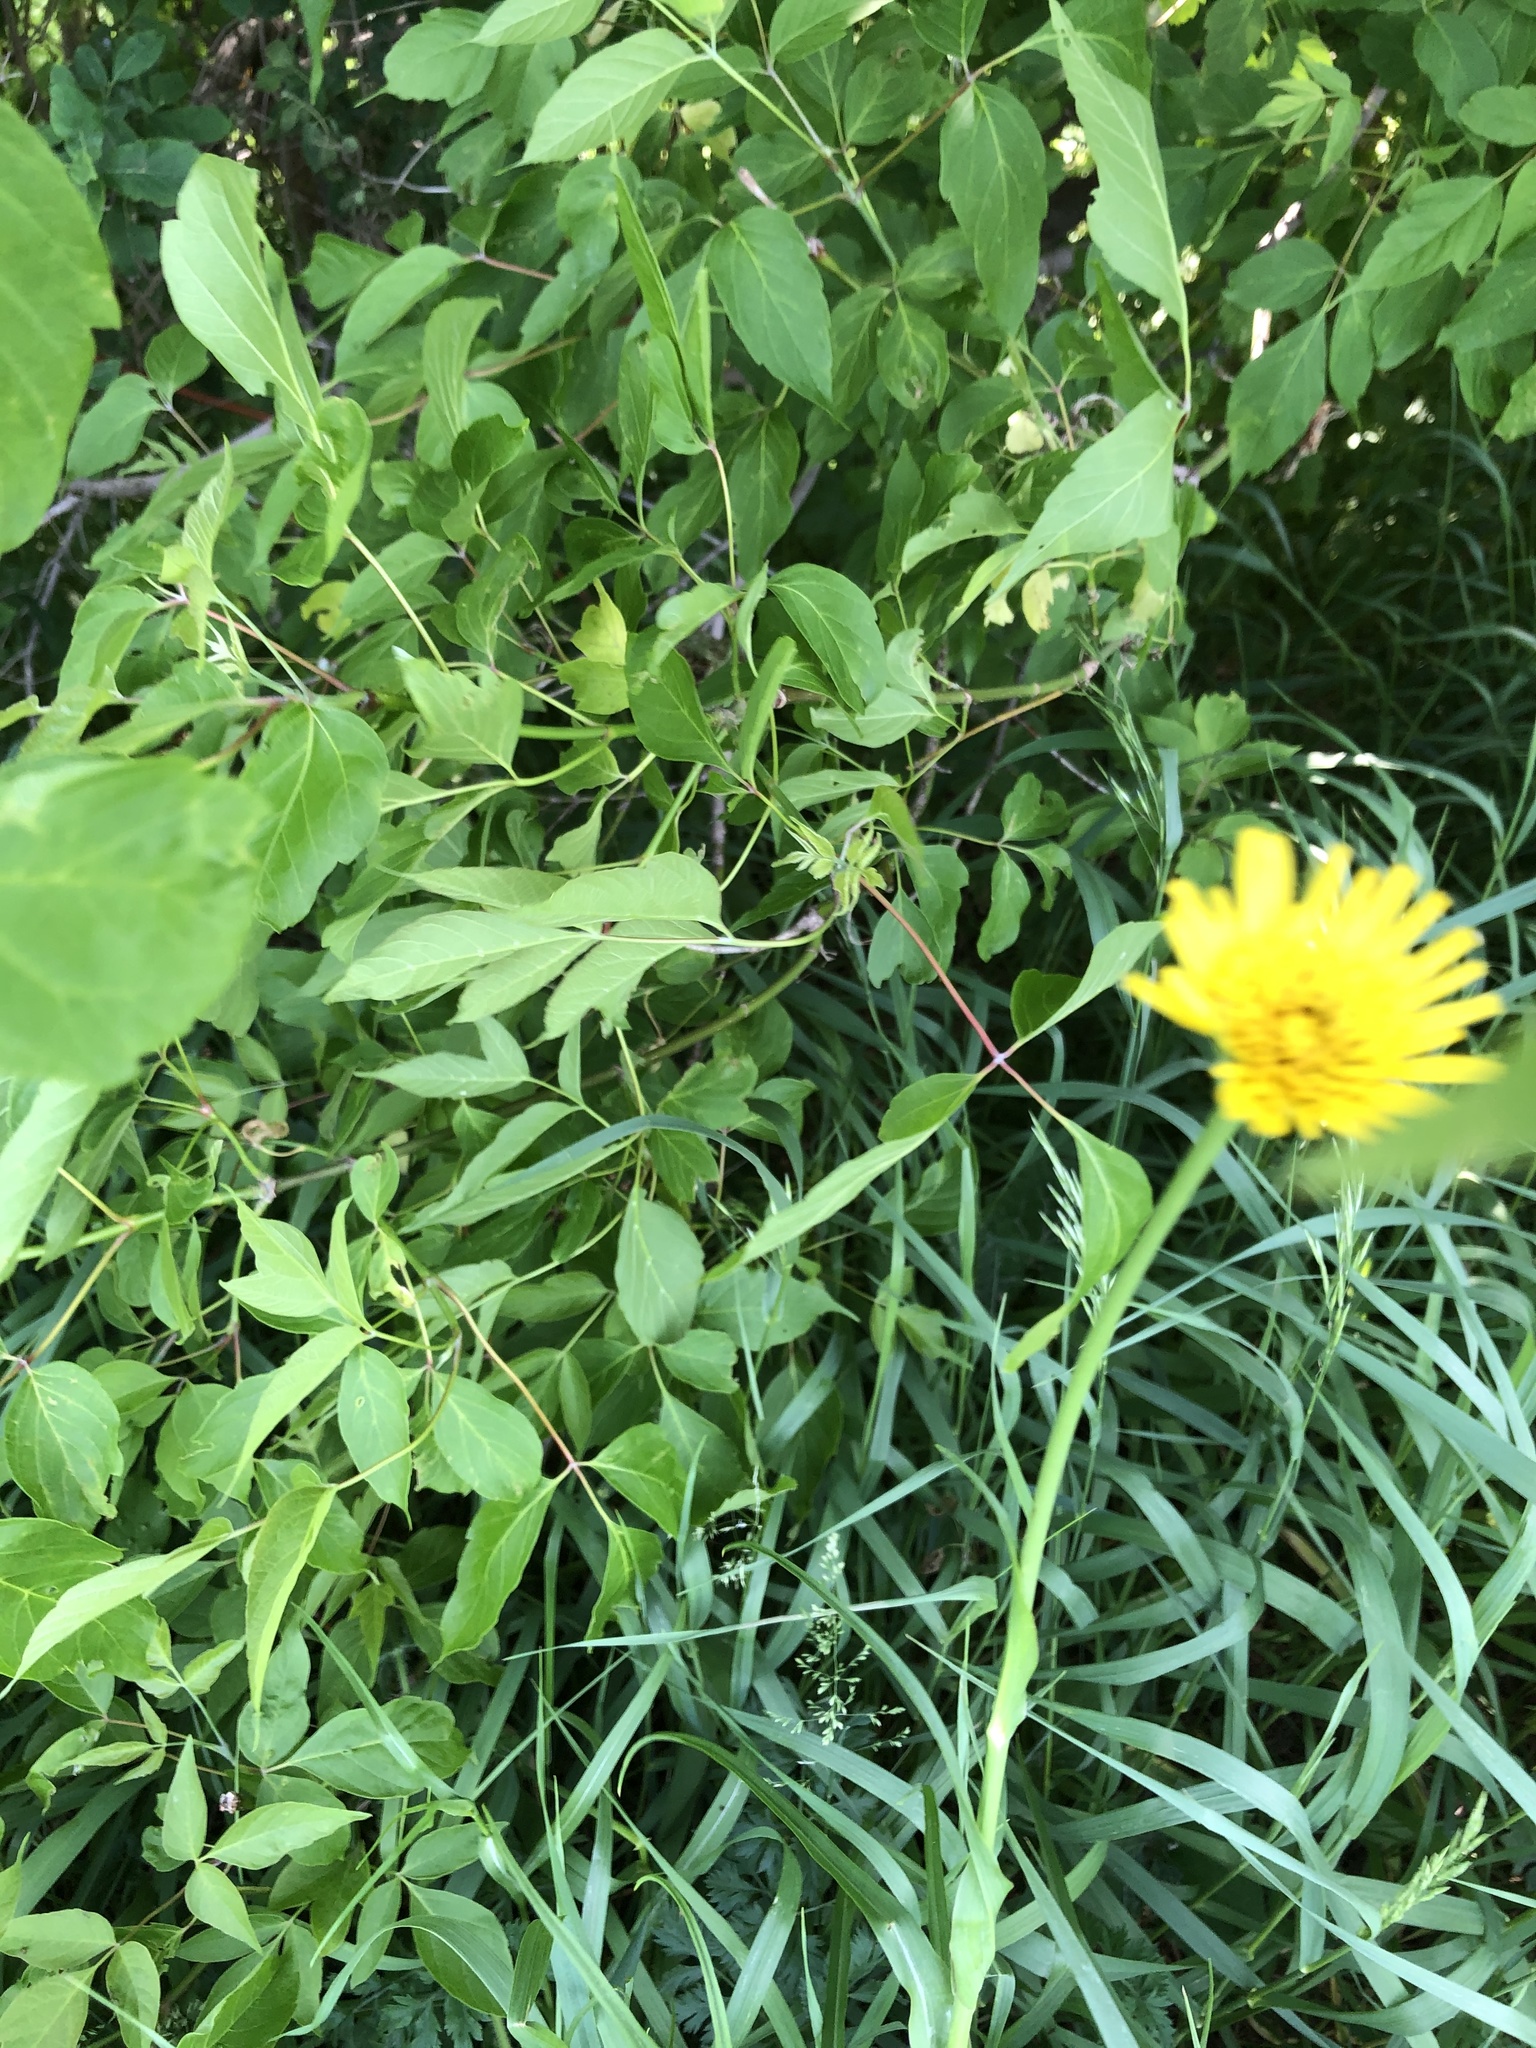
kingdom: Plantae
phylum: Tracheophyta
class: Magnoliopsida
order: Asterales
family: Asteraceae
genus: Tragopogon
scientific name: Tragopogon pratensis
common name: Goat's-beard
